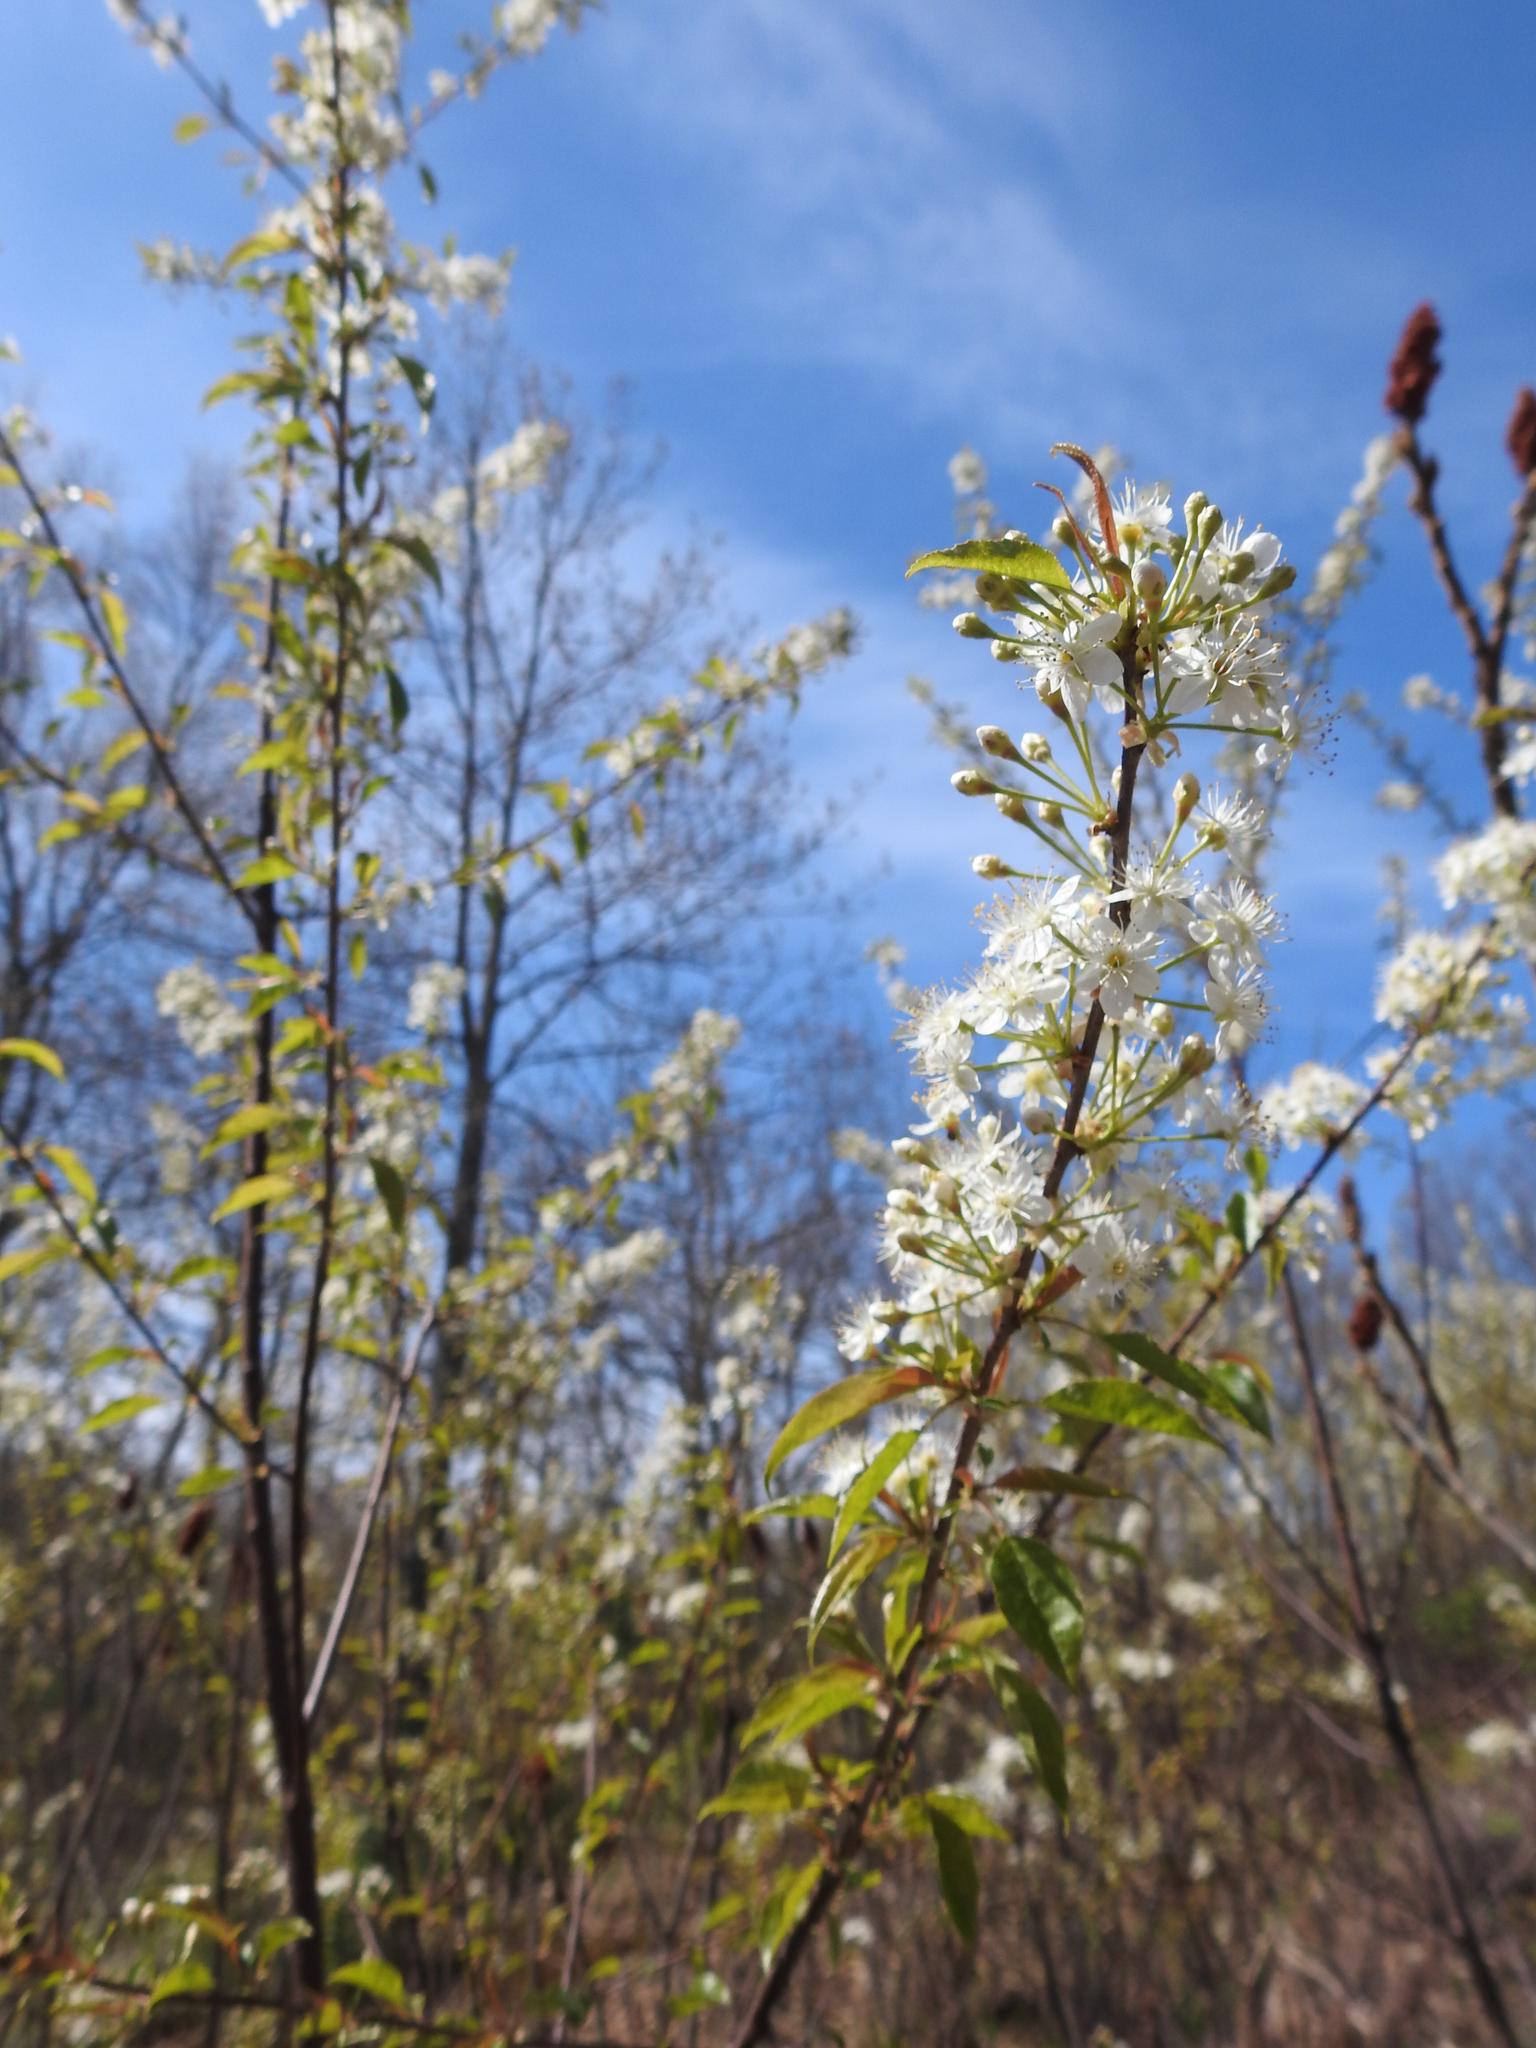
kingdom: Plantae
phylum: Tracheophyta
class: Magnoliopsida
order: Rosales
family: Rosaceae
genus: Prunus
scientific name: Prunus pensylvanica
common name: Pin cherry
